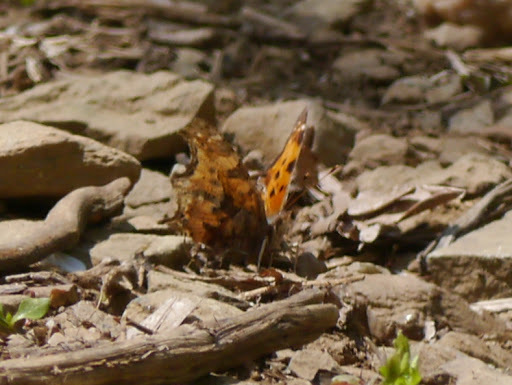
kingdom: Animalia
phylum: Arthropoda
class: Insecta
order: Lepidoptera
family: Nymphalidae
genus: Polygonia
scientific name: Polygonia comma
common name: Eastern comma
